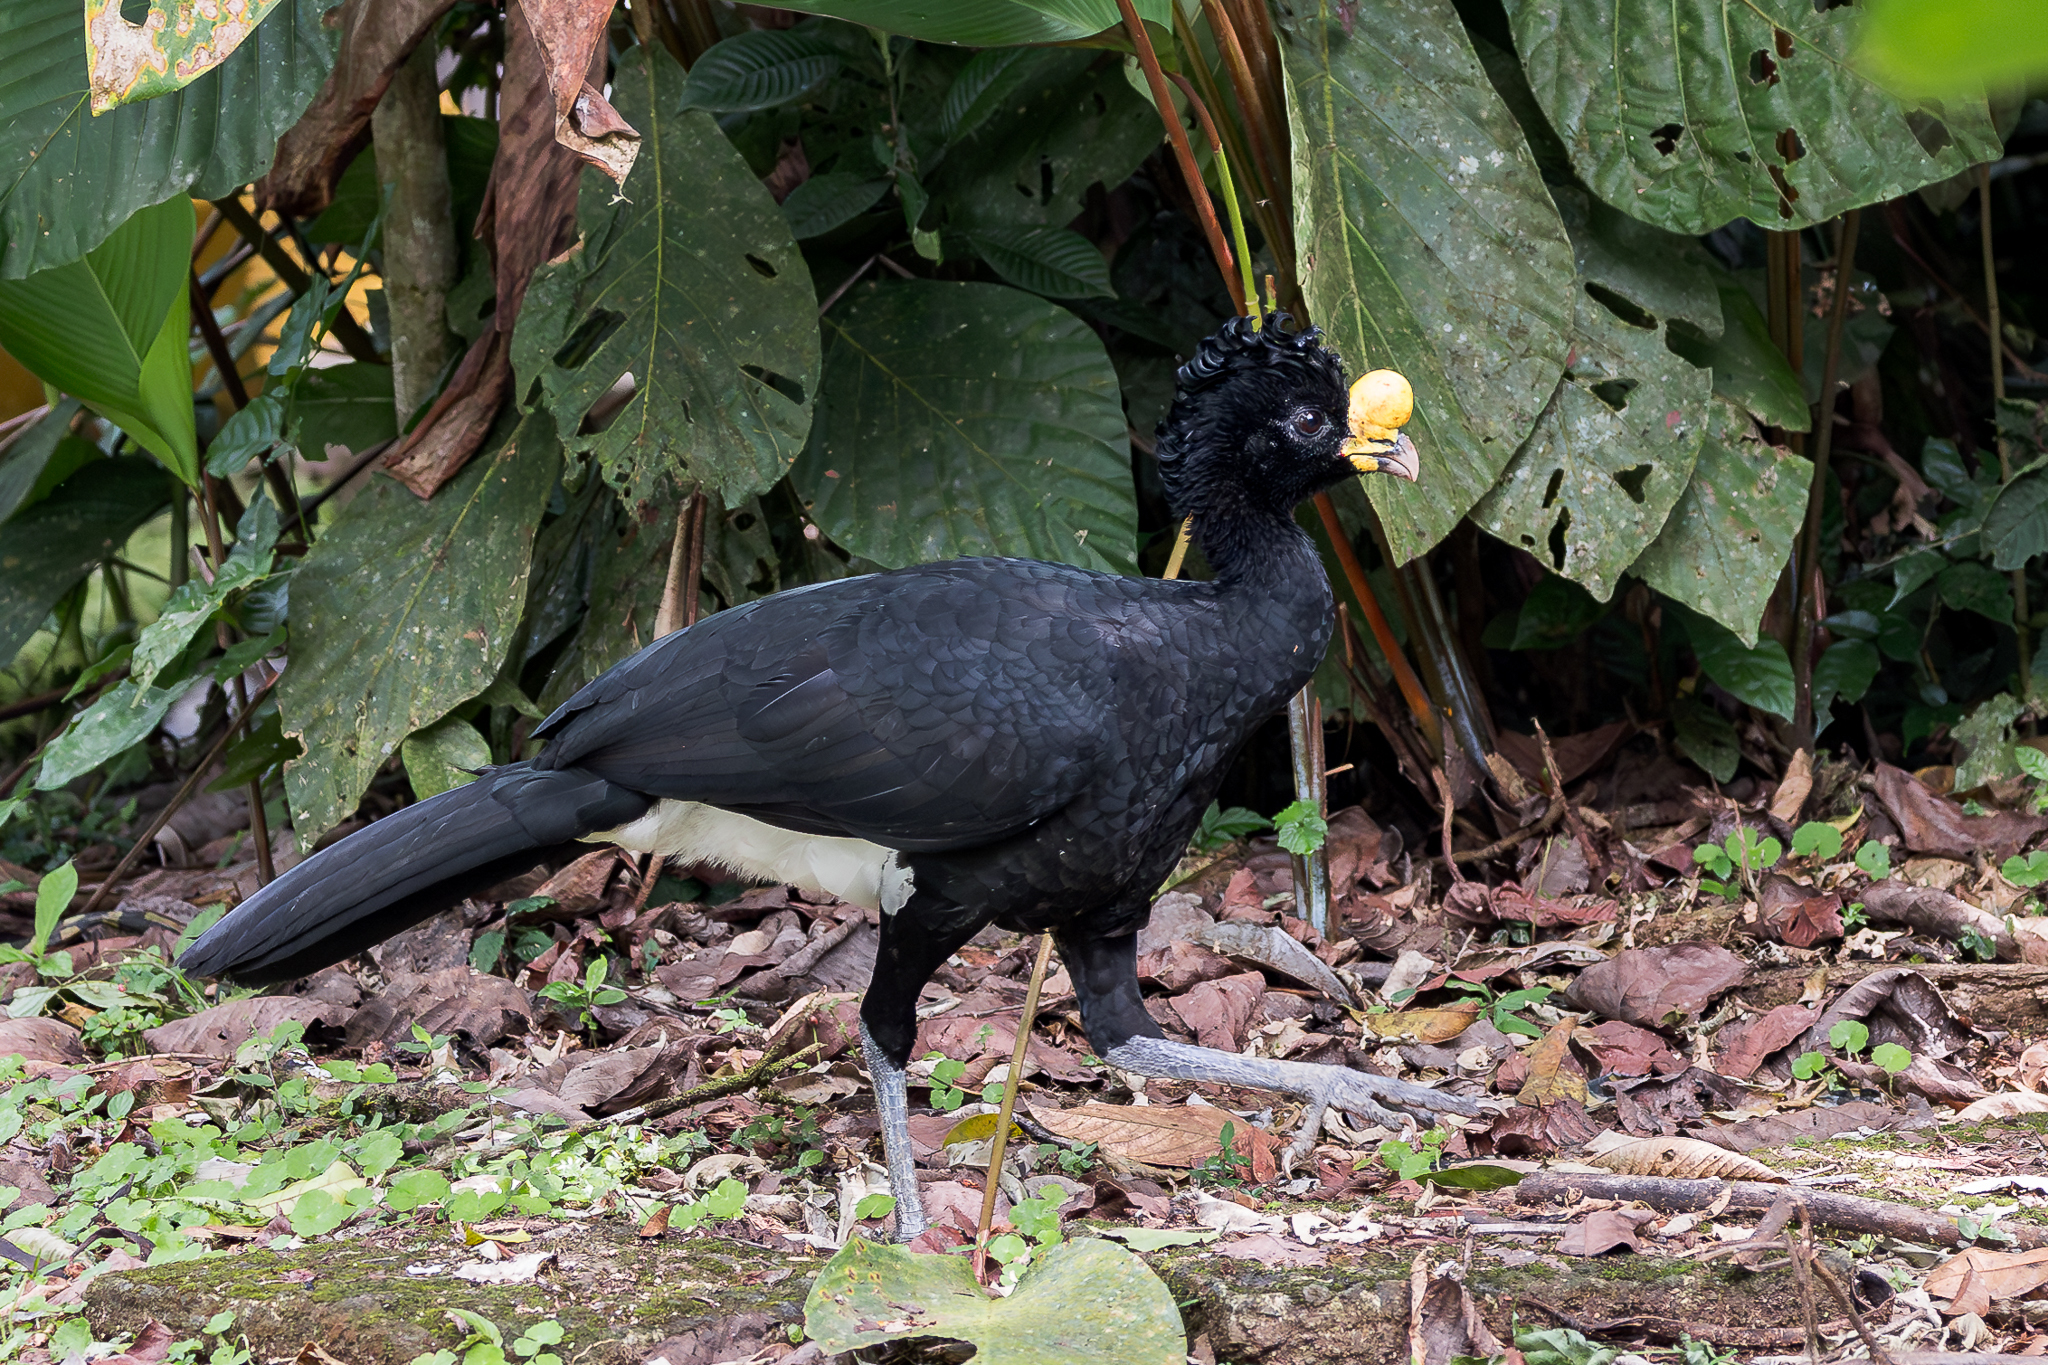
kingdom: Animalia
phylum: Chordata
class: Aves
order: Galliformes
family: Cracidae
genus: Crax
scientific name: Crax rubra
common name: Great curassow
